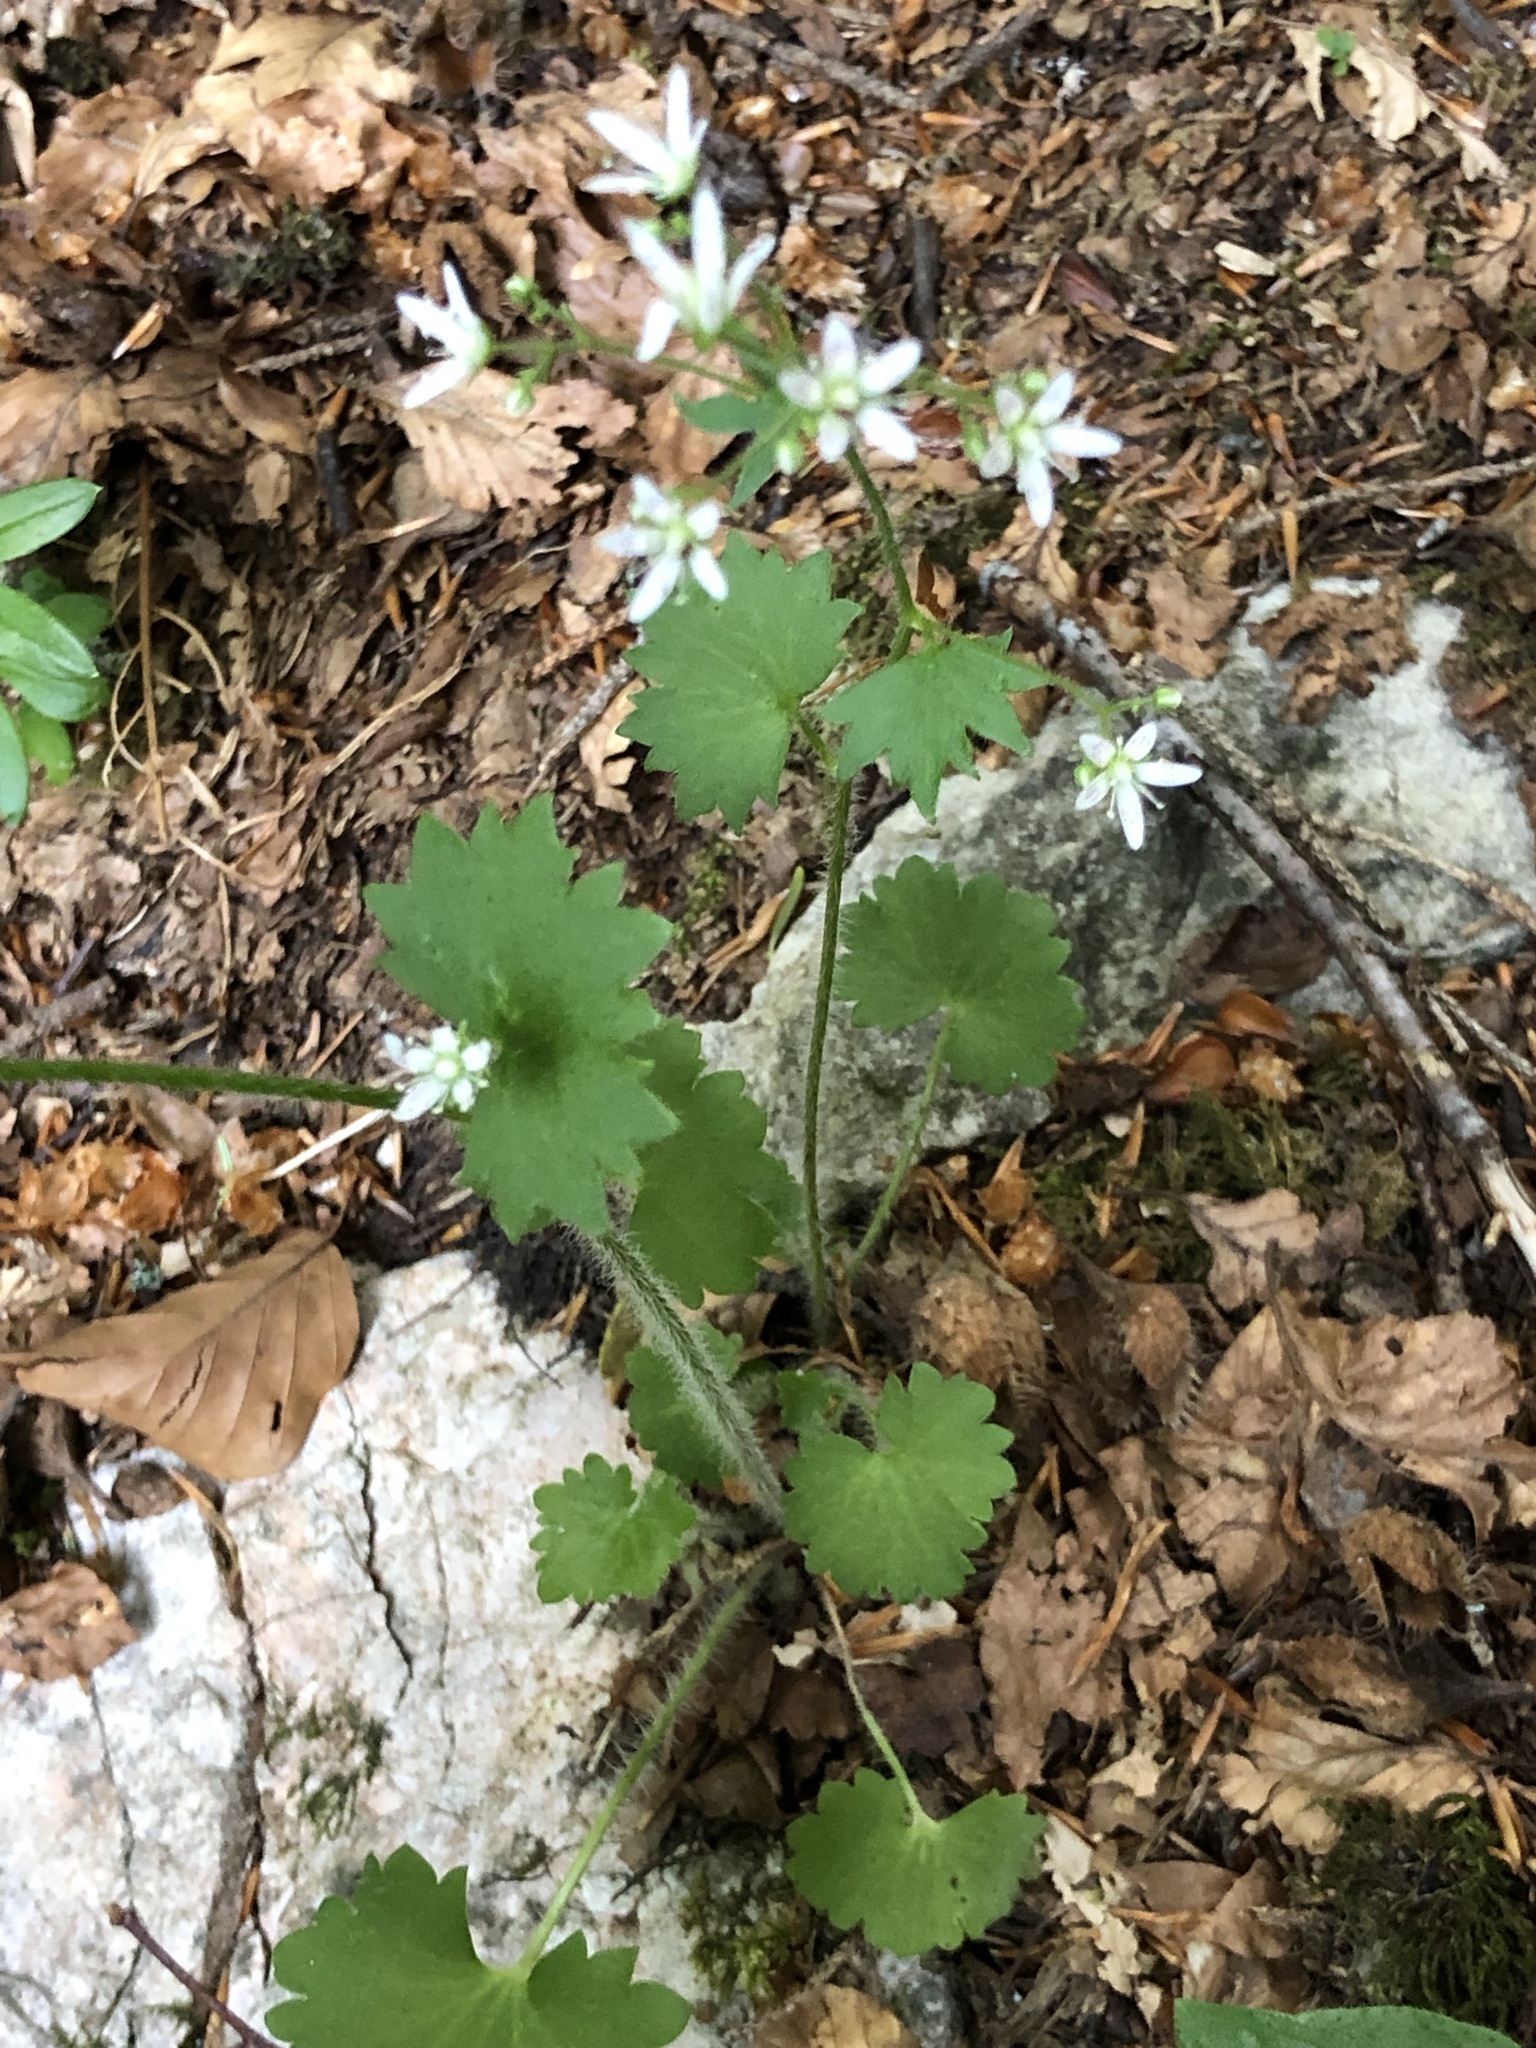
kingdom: Plantae
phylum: Tracheophyta
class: Magnoliopsida
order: Saxifragales
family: Saxifragaceae
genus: Saxifraga
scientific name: Saxifraga rotundifolia
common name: Round-leaved saxifrage
